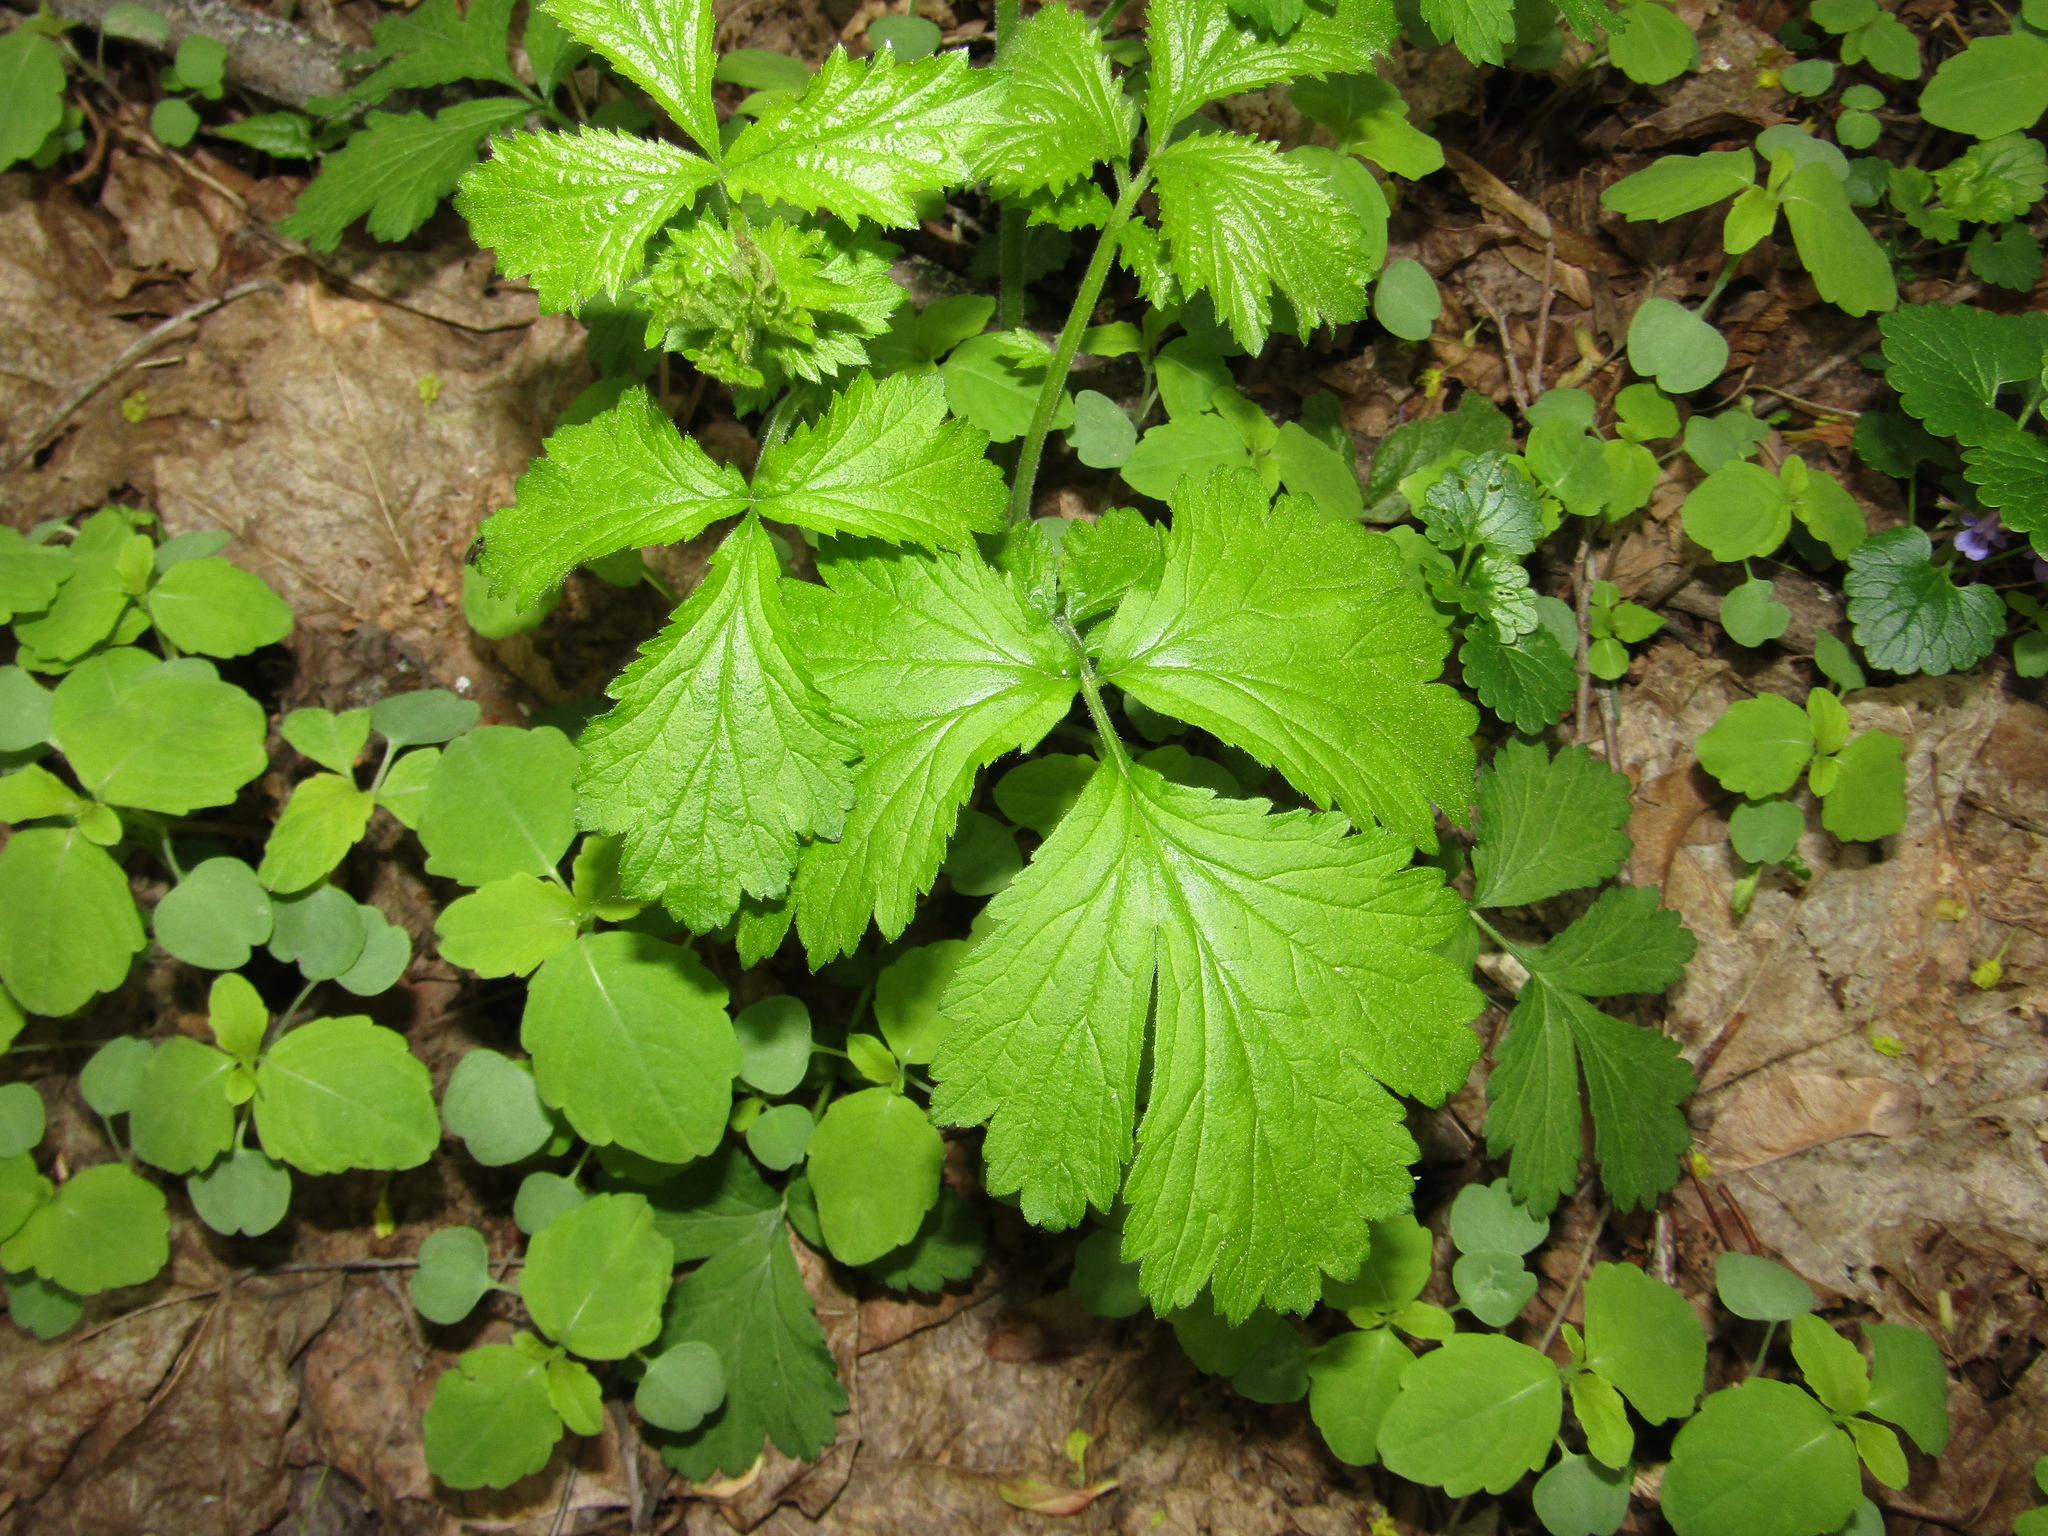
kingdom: Plantae
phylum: Tracheophyta
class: Magnoliopsida
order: Rosales
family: Rosaceae
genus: Geum
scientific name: Geum urbanum
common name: Wood avens
